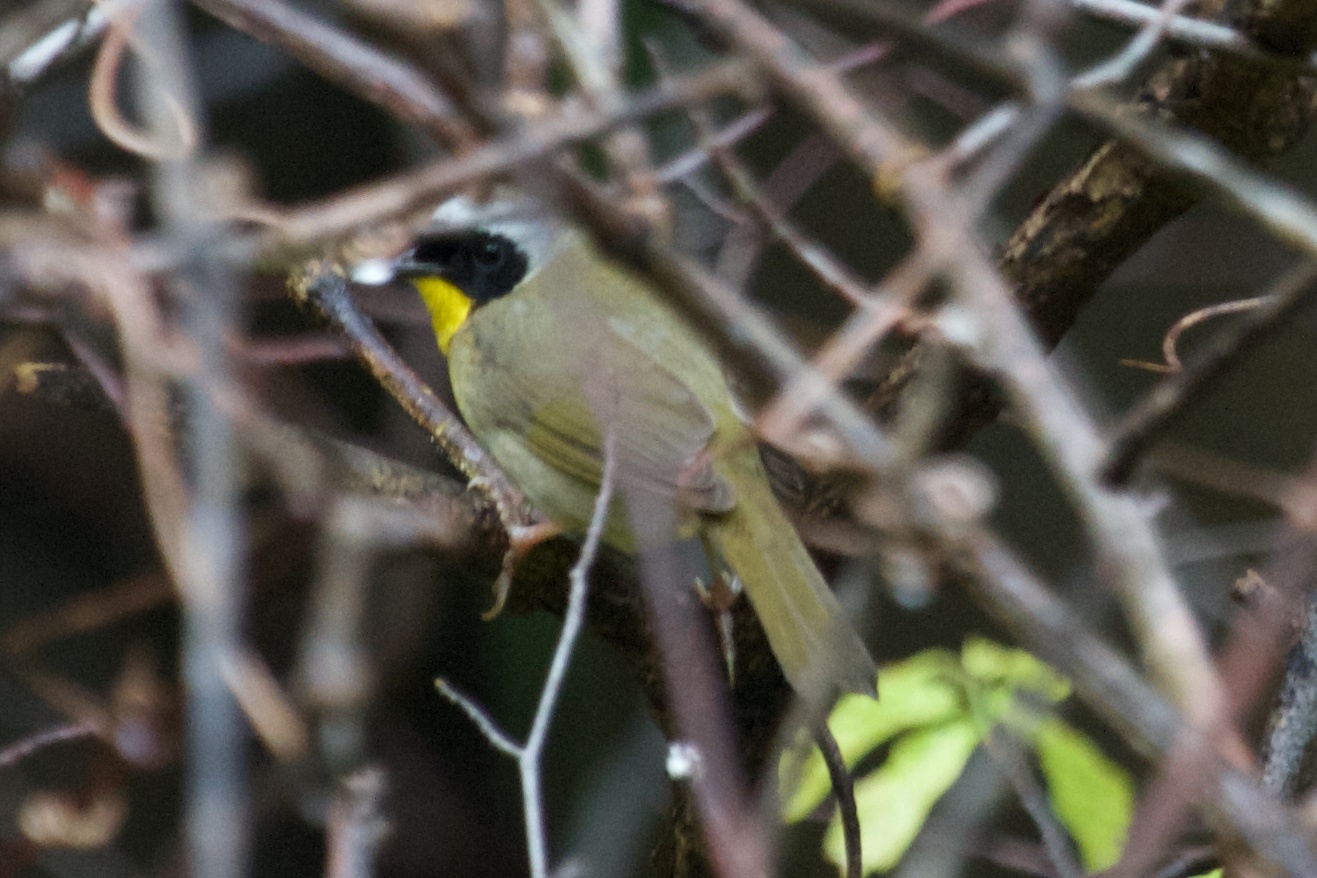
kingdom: Animalia
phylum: Chordata
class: Aves
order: Passeriformes
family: Parulidae
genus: Geothlypis
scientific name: Geothlypis trichas
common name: Common yellowthroat
